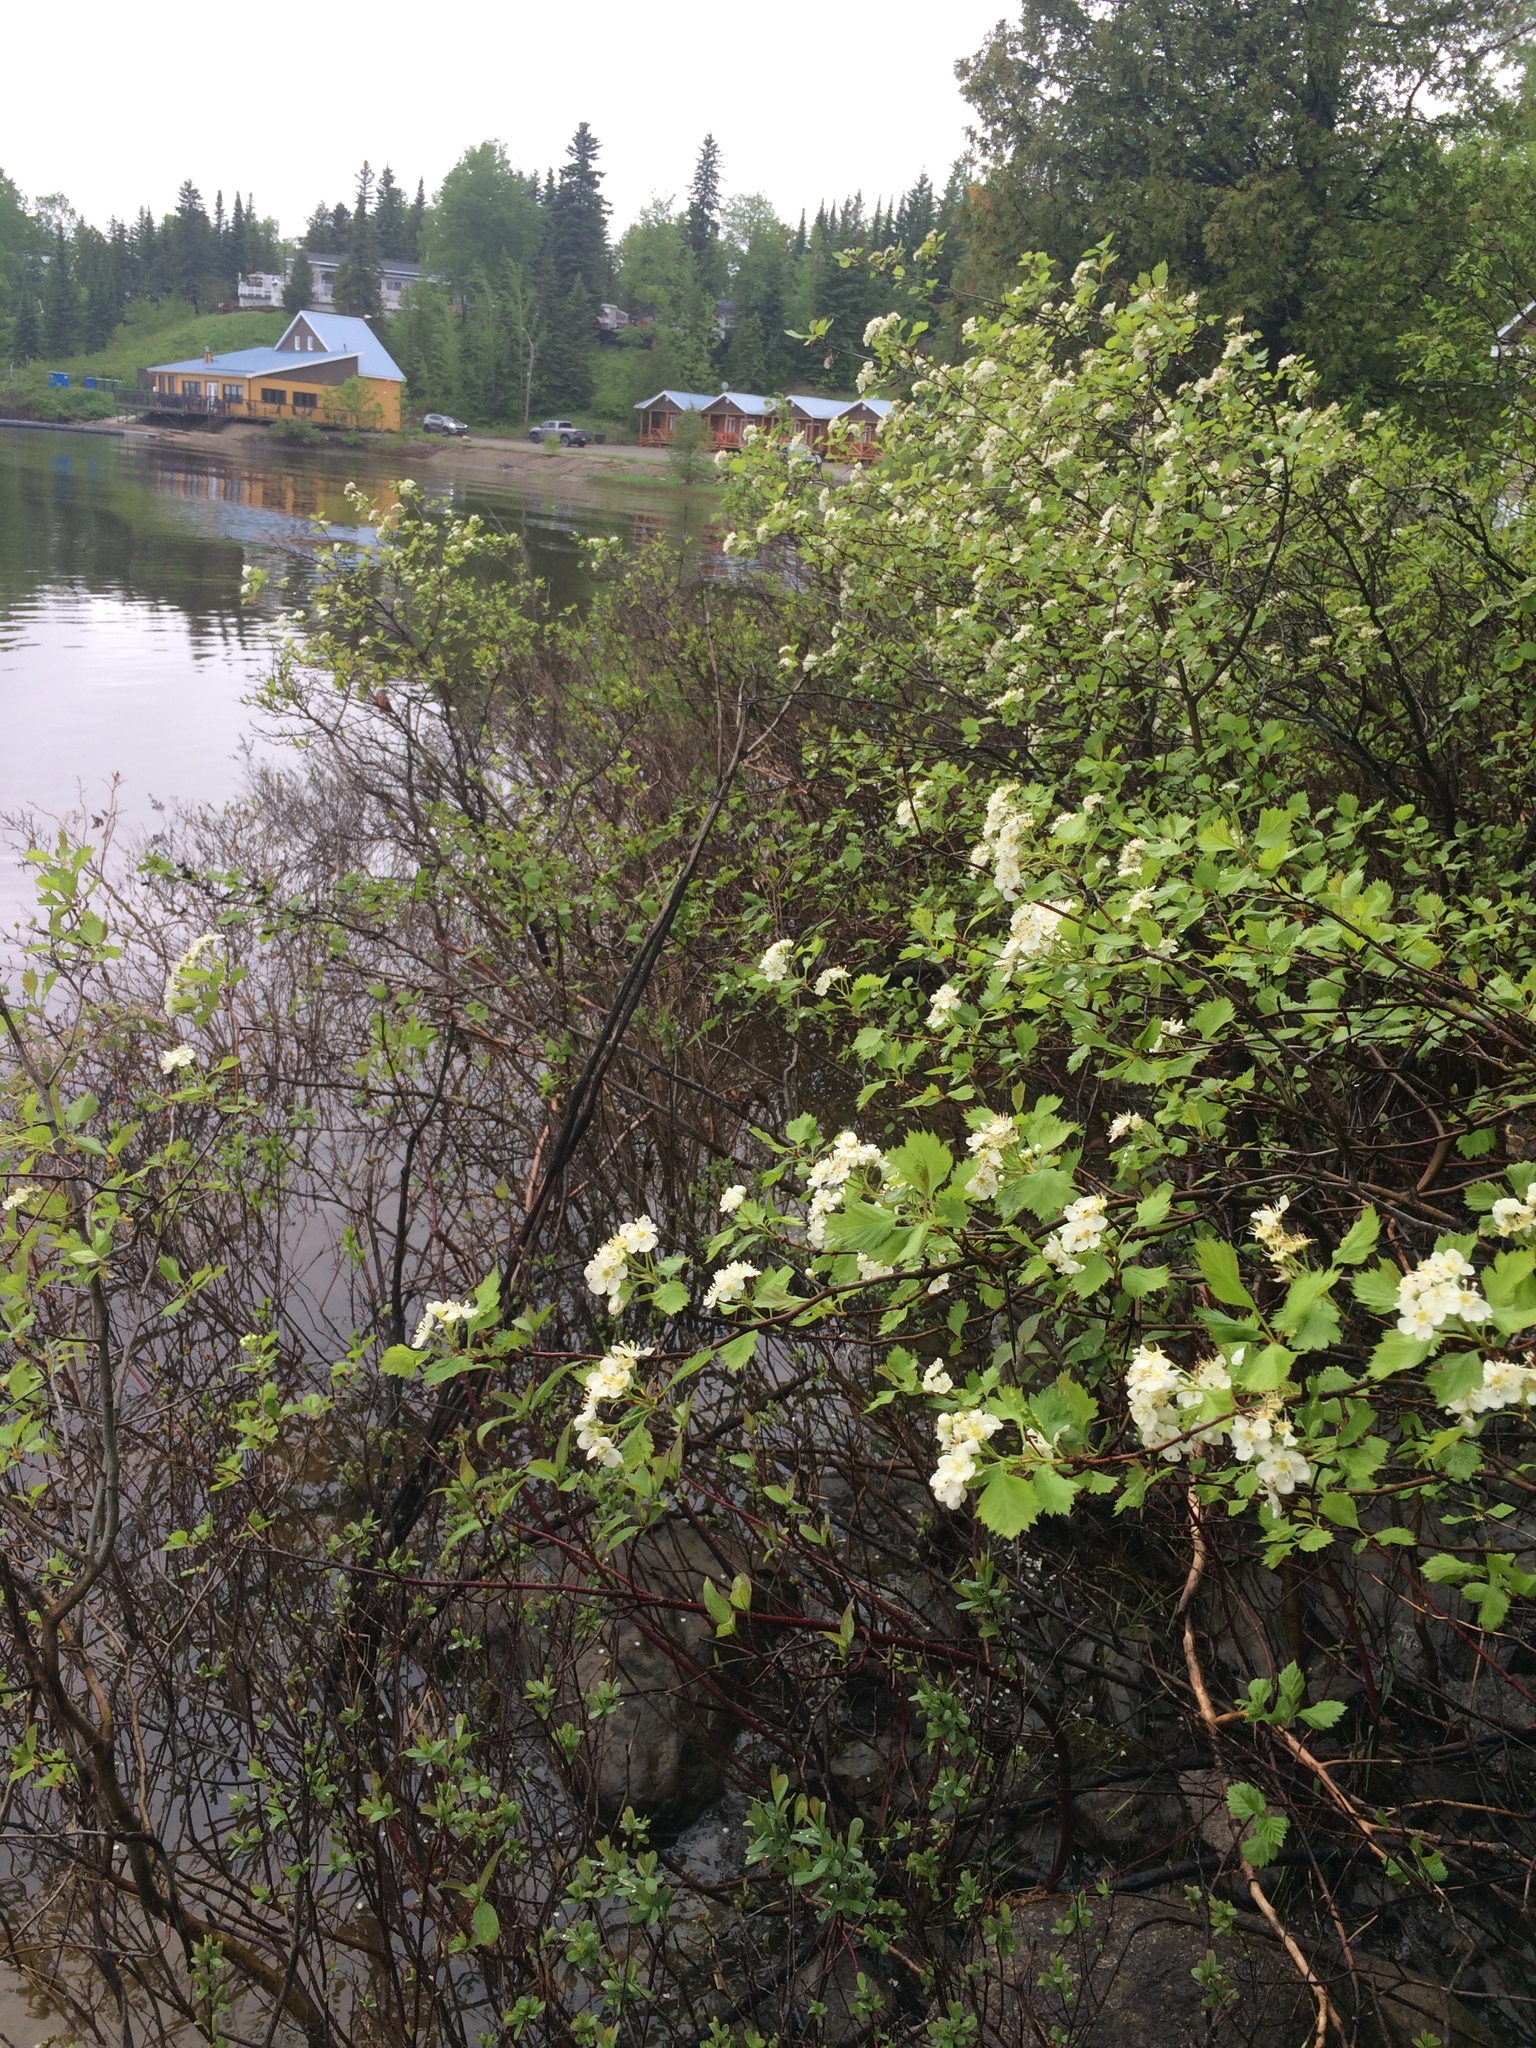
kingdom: Plantae
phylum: Tracheophyta
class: Magnoliopsida
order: Rosales
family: Rosaceae
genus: Crataegus
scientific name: Crataegus chrysocarpa
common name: Fire-berry hawthorn
